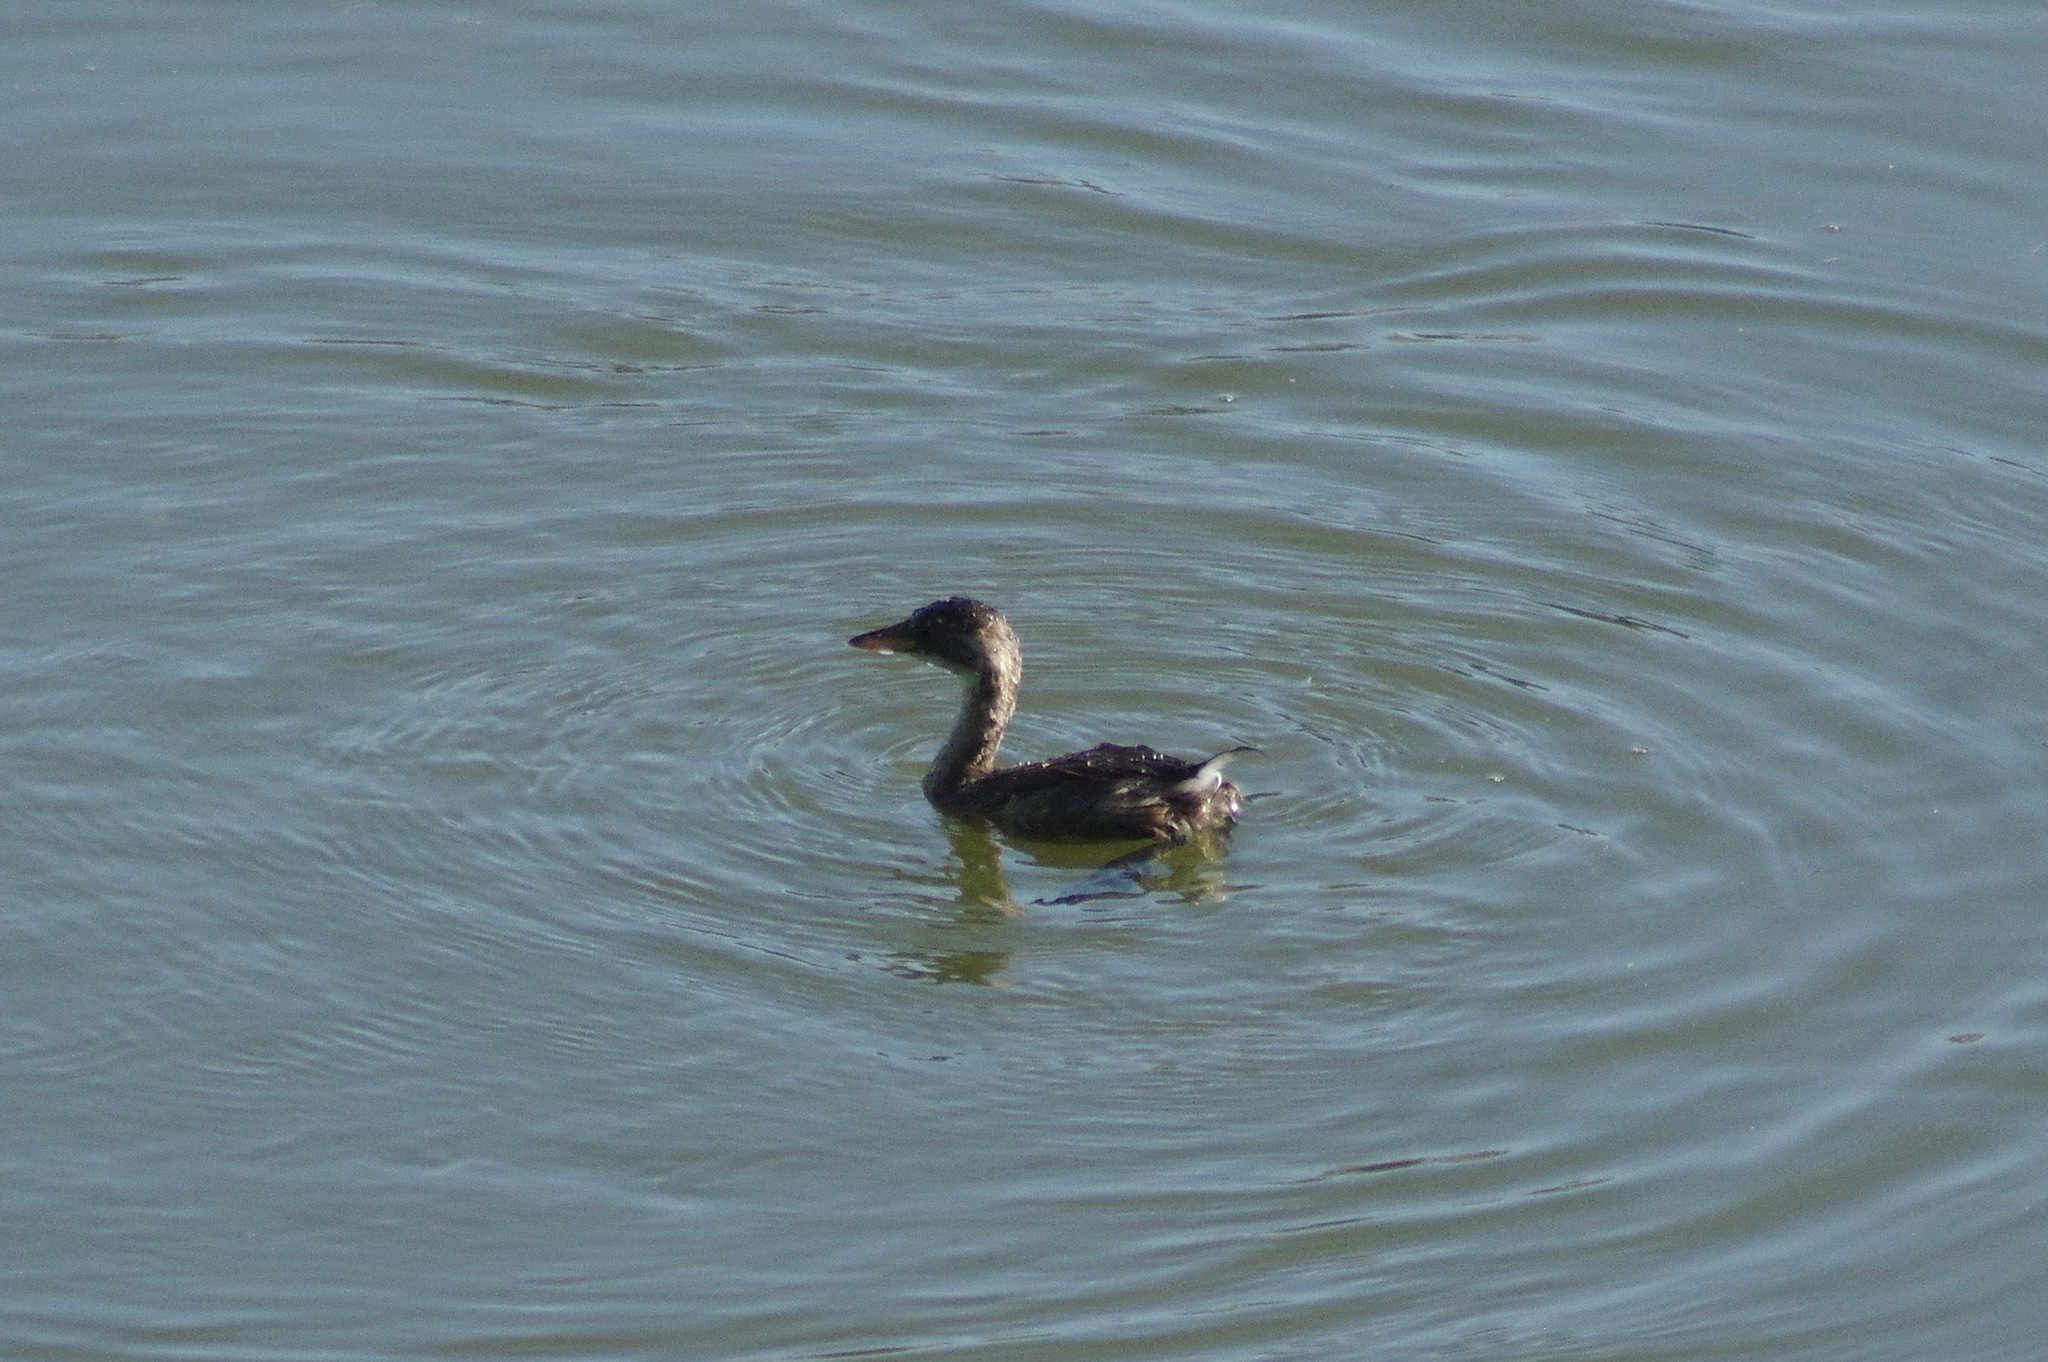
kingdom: Animalia
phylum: Chordata
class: Aves
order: Podicipediformes
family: Podicipedidae
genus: Tachybaptus
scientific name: Tachybaptus ruficollis
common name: Little grebe
